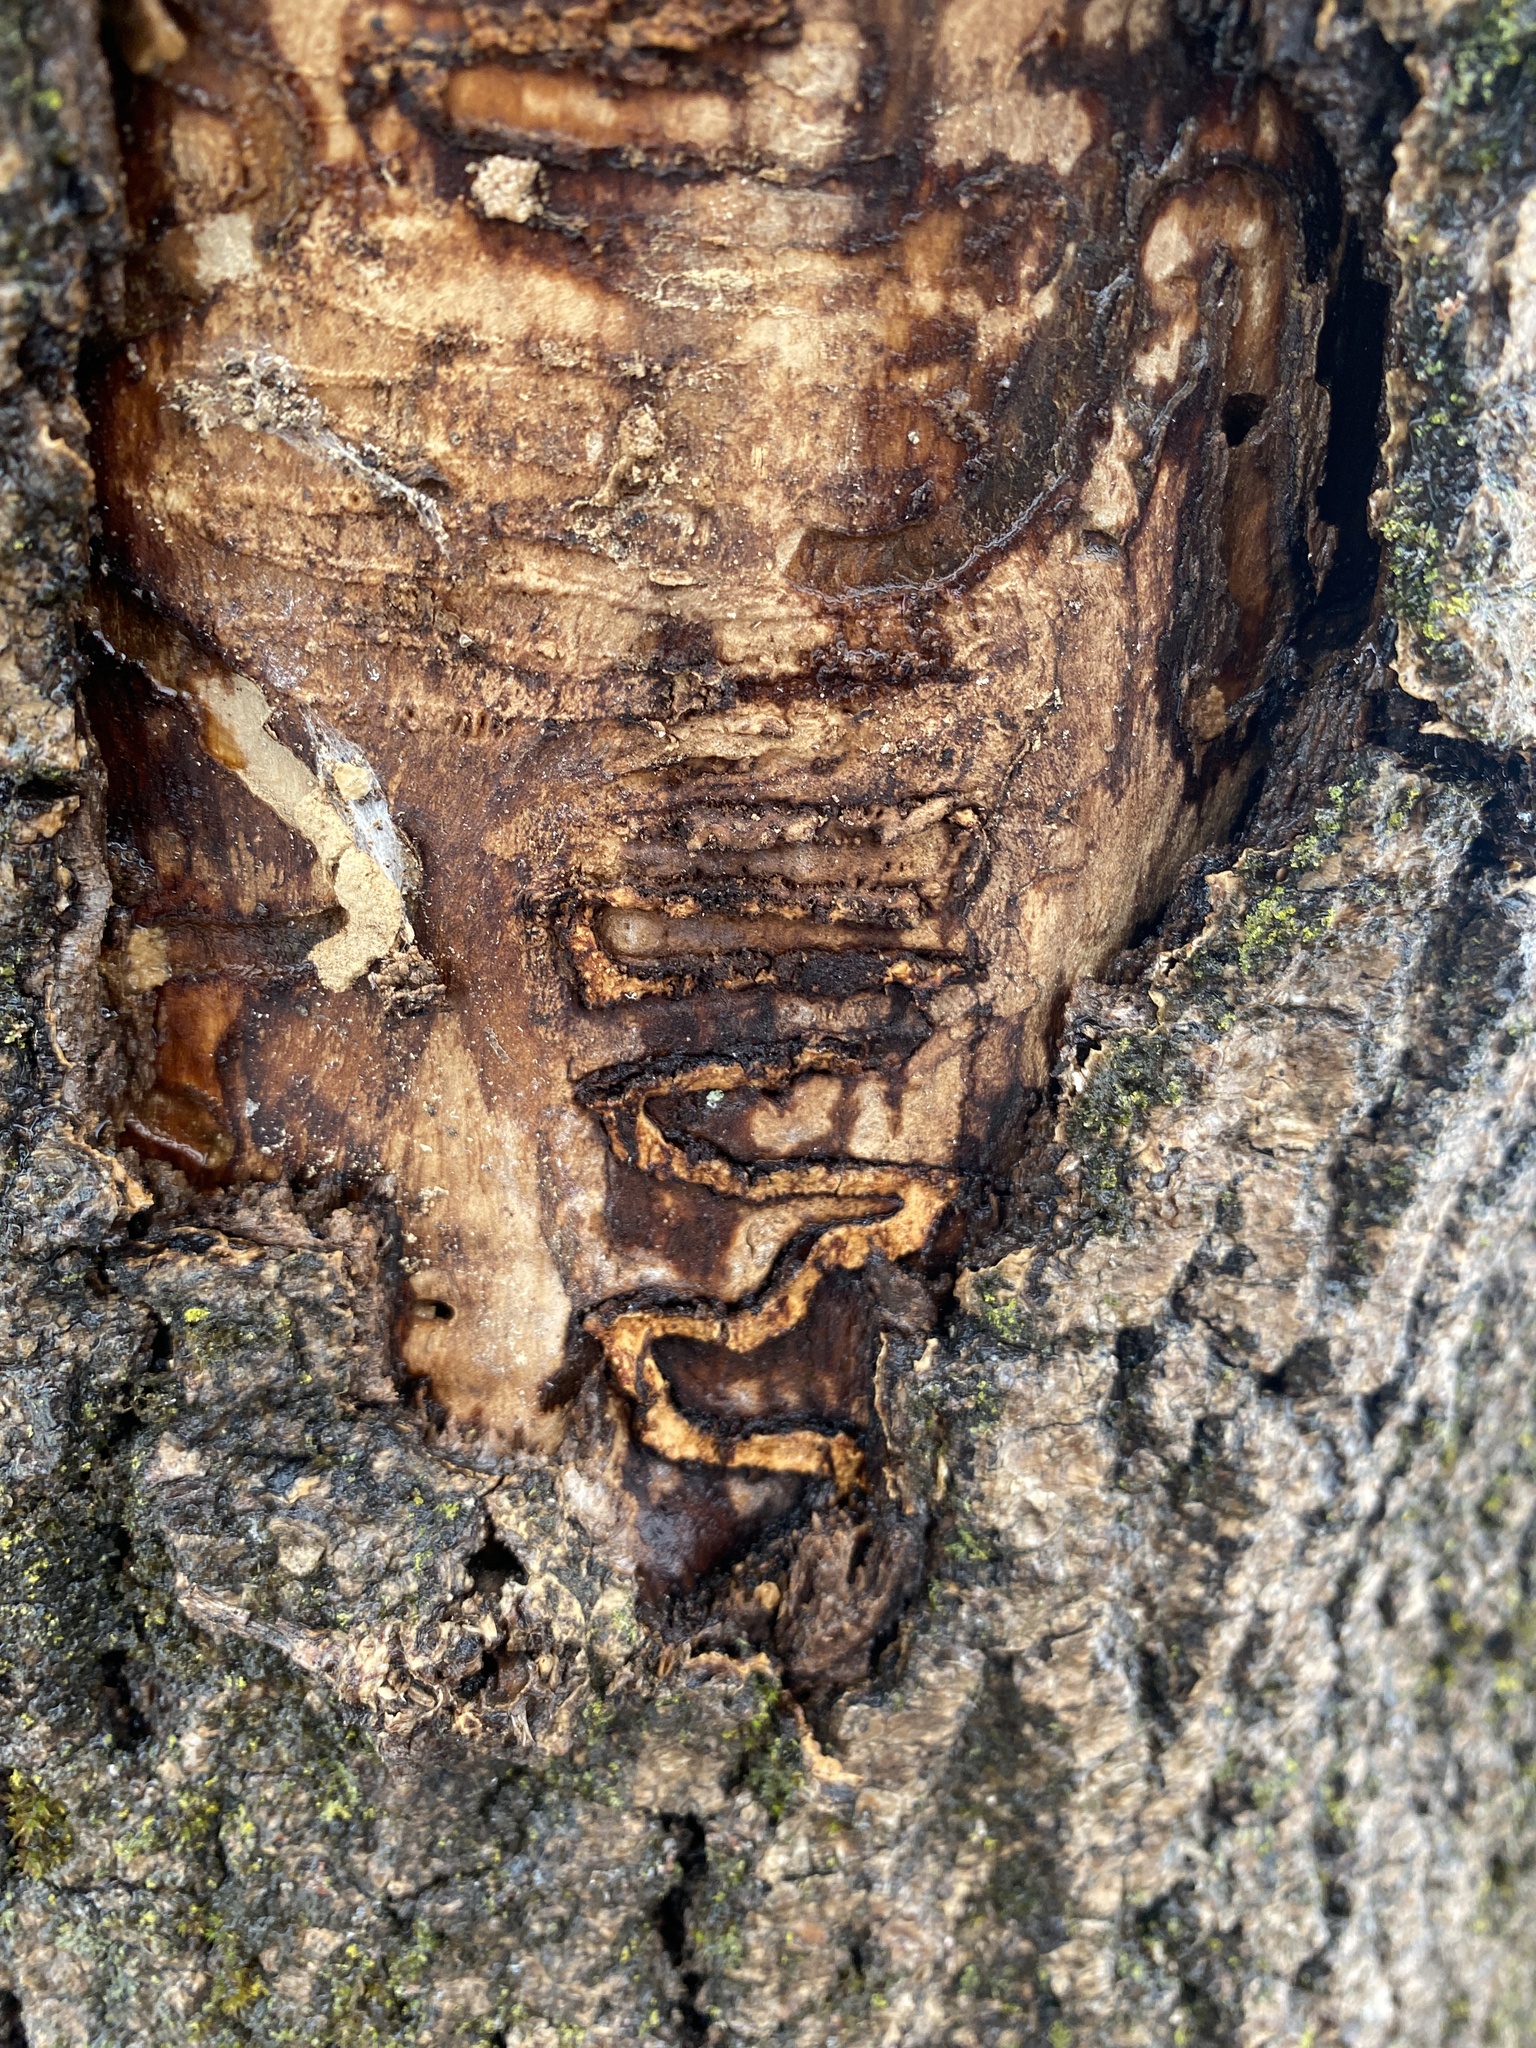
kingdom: Animalia
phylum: Arthropoda
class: Insecta
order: Coleoptera
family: Buprestidae
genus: Agrilus
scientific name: Agrilus planipennis
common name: Emerald ash borer
